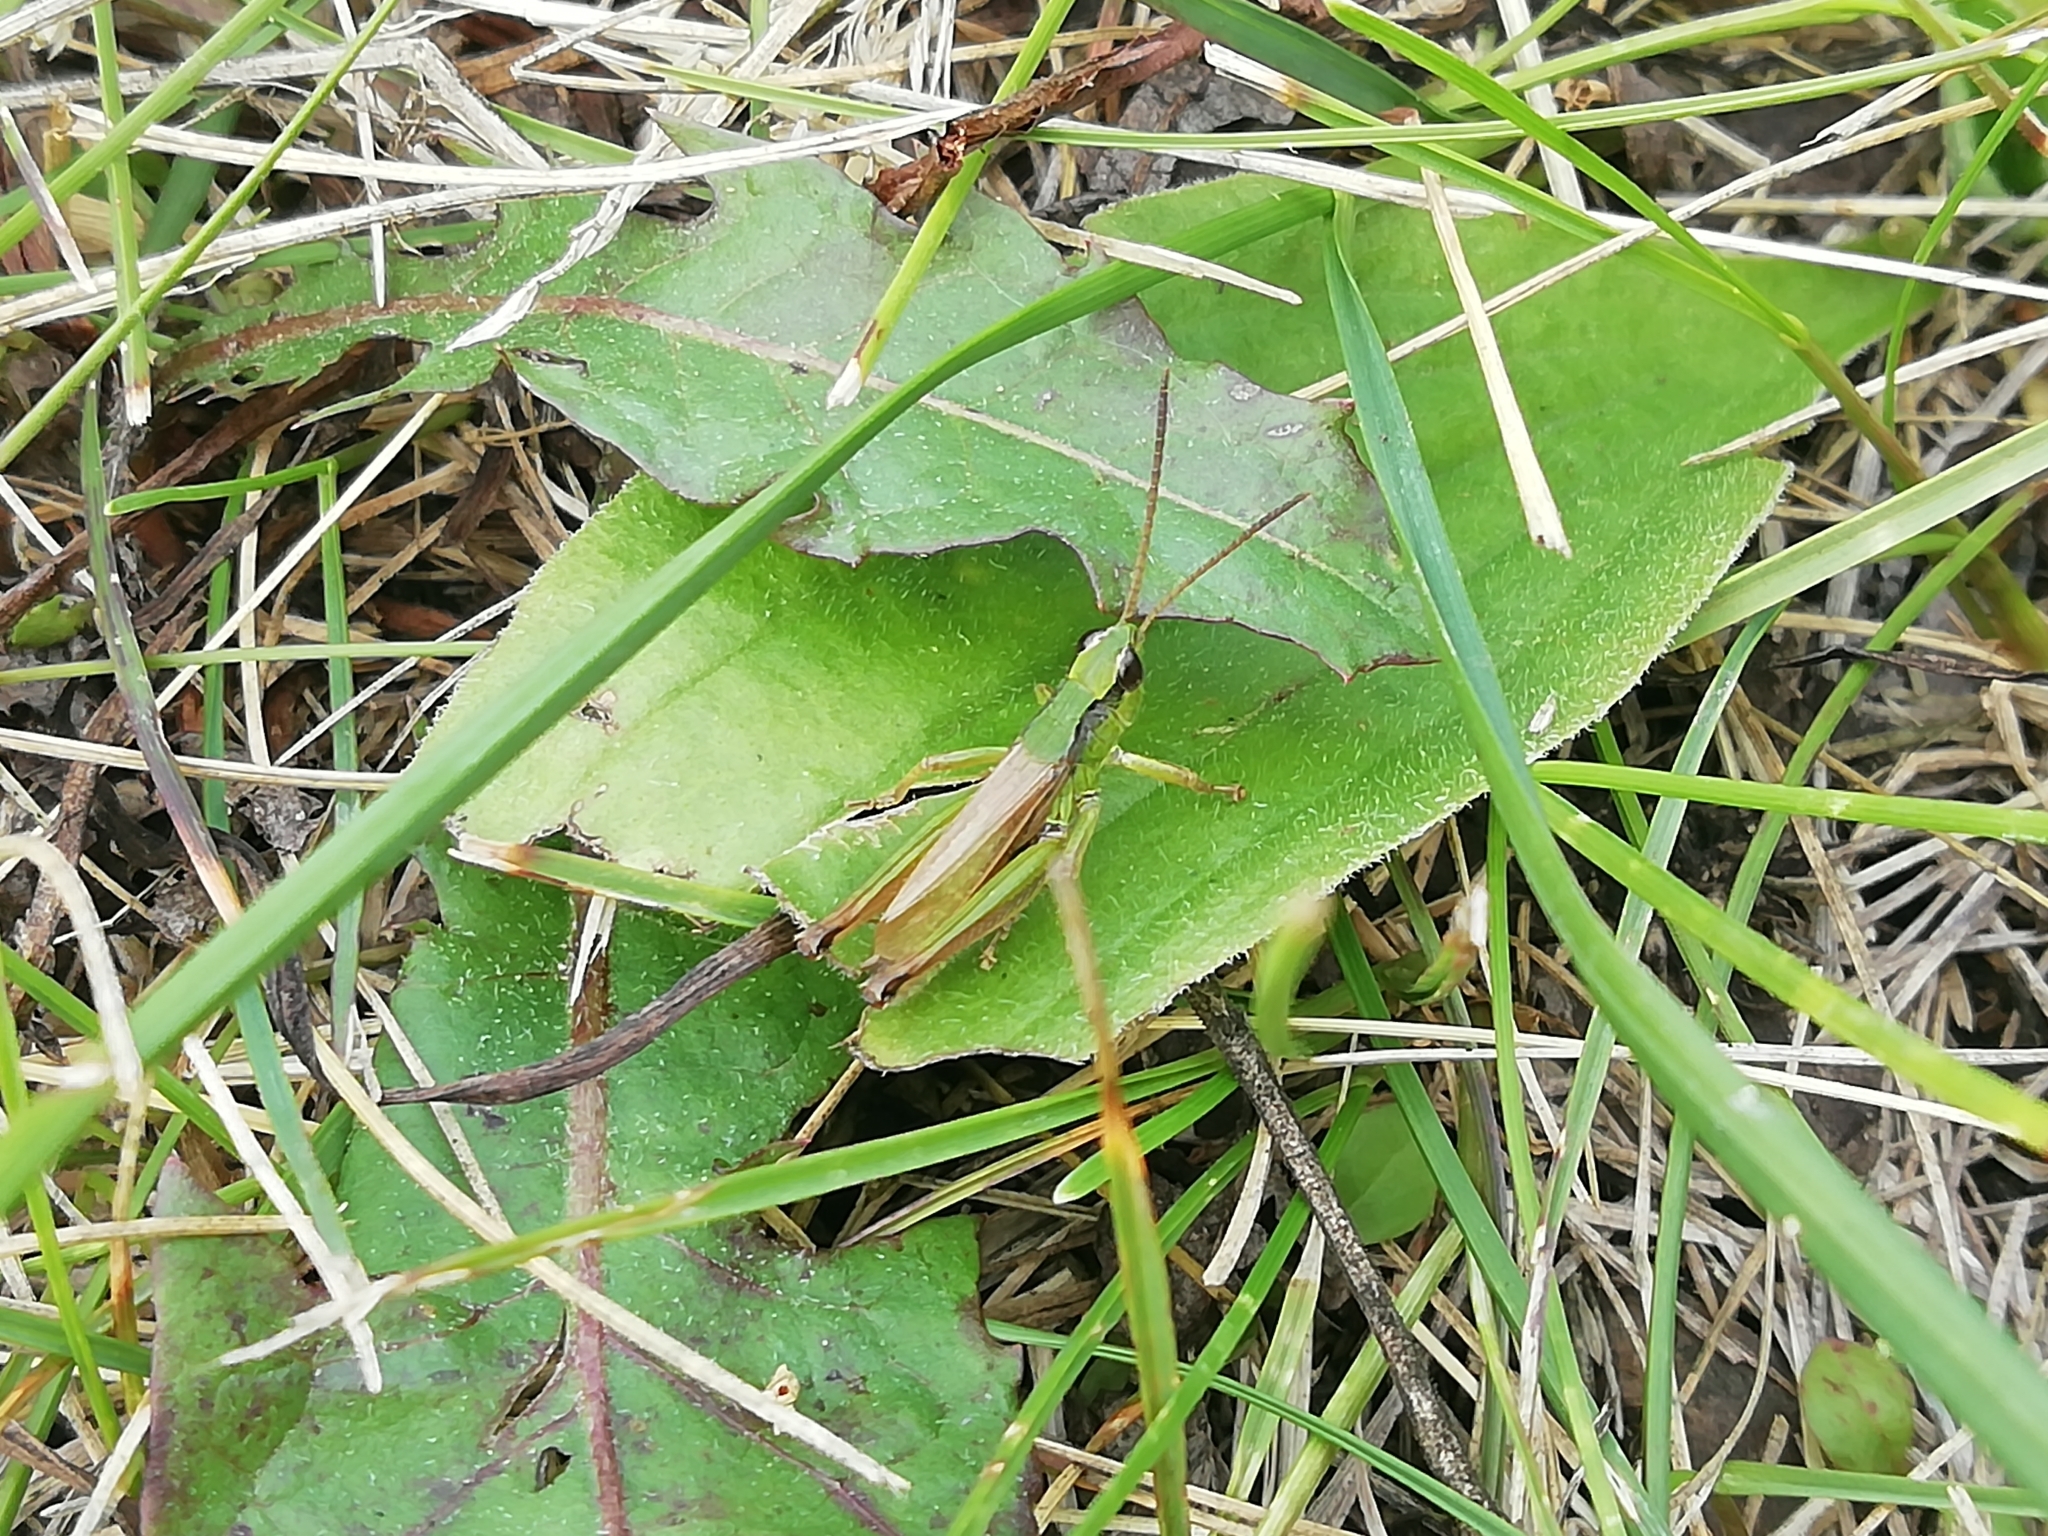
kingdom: Animalia
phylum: Arthropoda
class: Insecta
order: Orthoptera
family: Acrididae
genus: Chorthippus
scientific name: Chorthippus fallax
